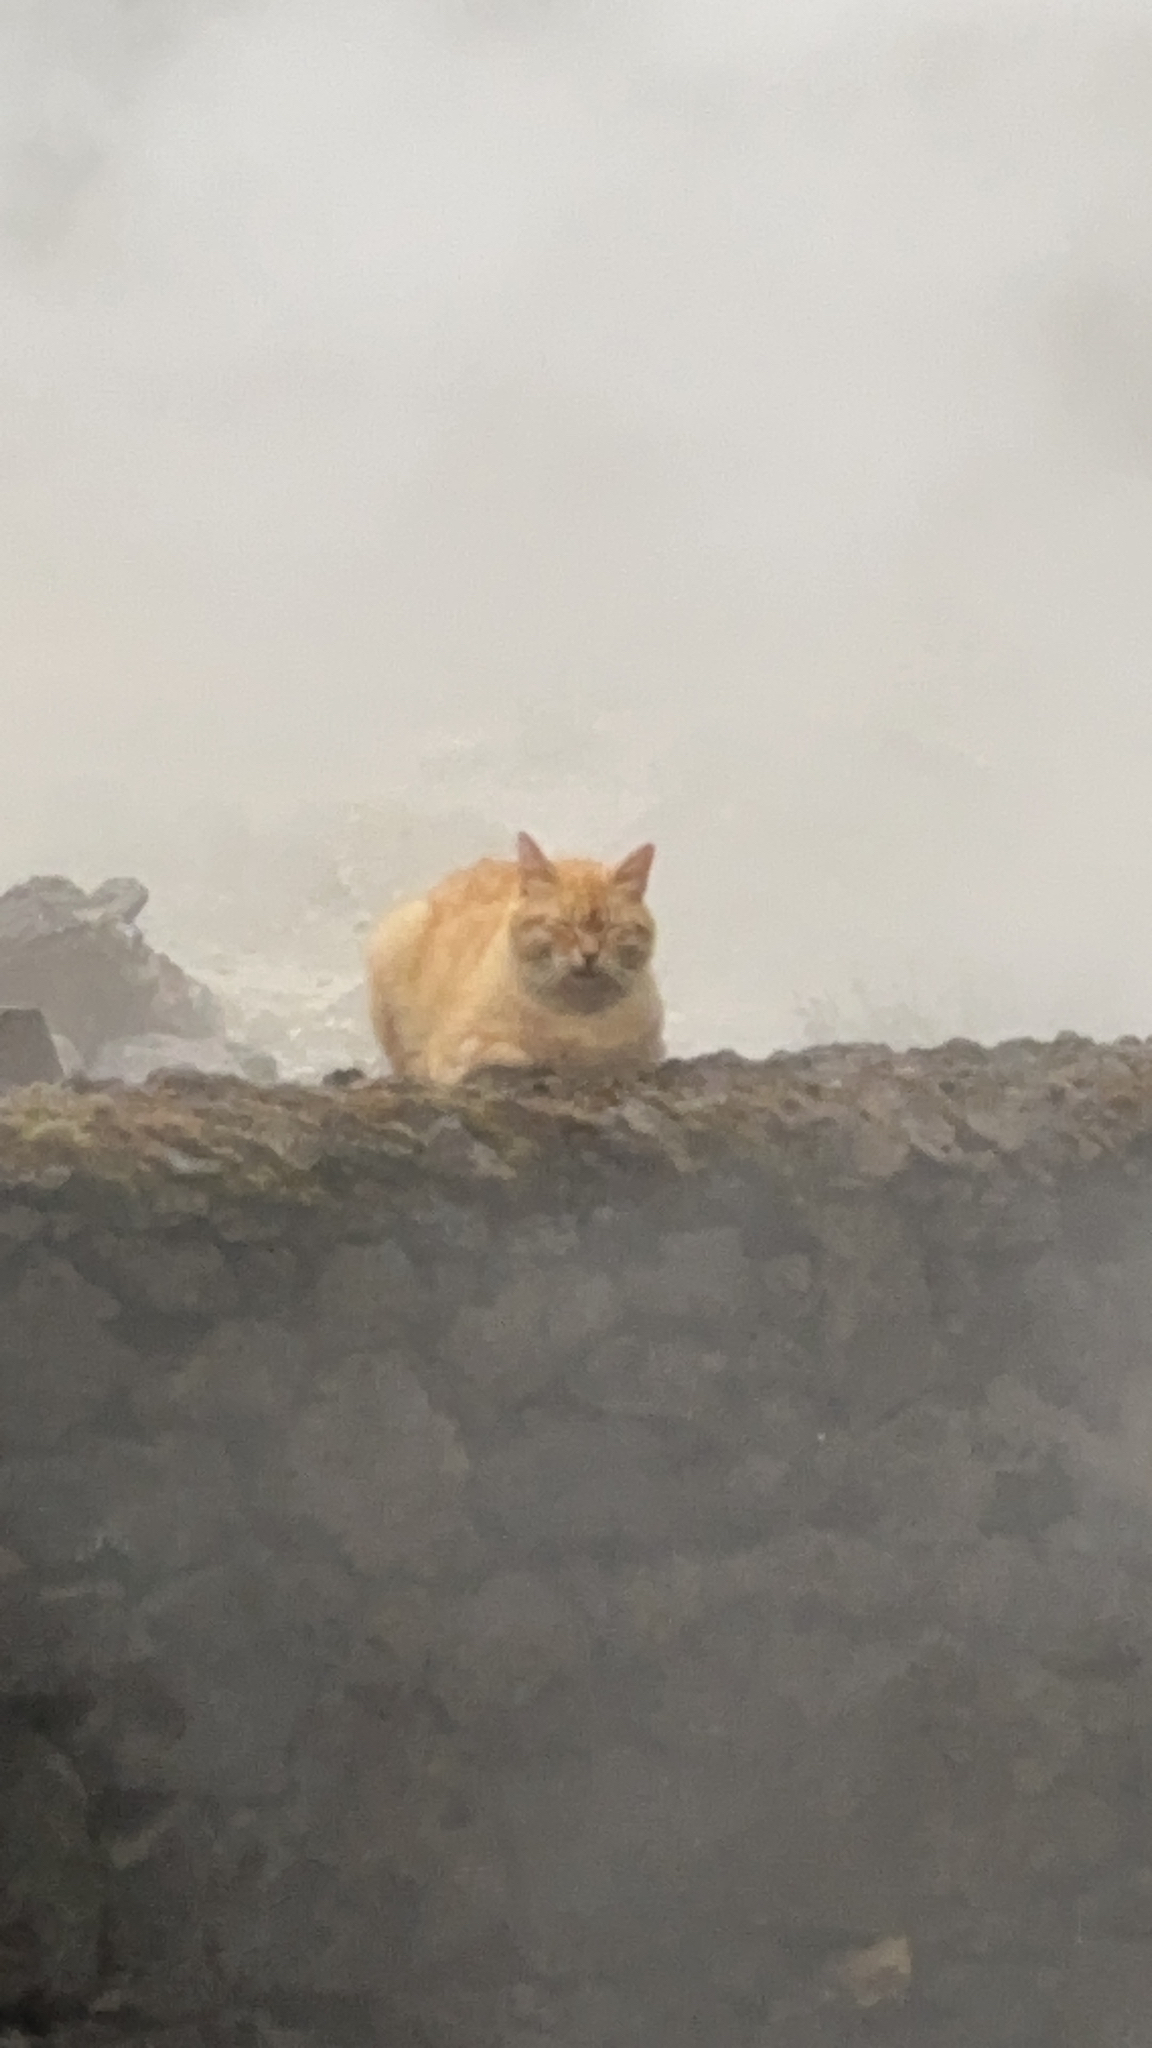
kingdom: Animalia
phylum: Chordata
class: Mammalia
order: Carnivora
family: Felidae
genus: Felis
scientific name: Felis catus
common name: Domestic cat
